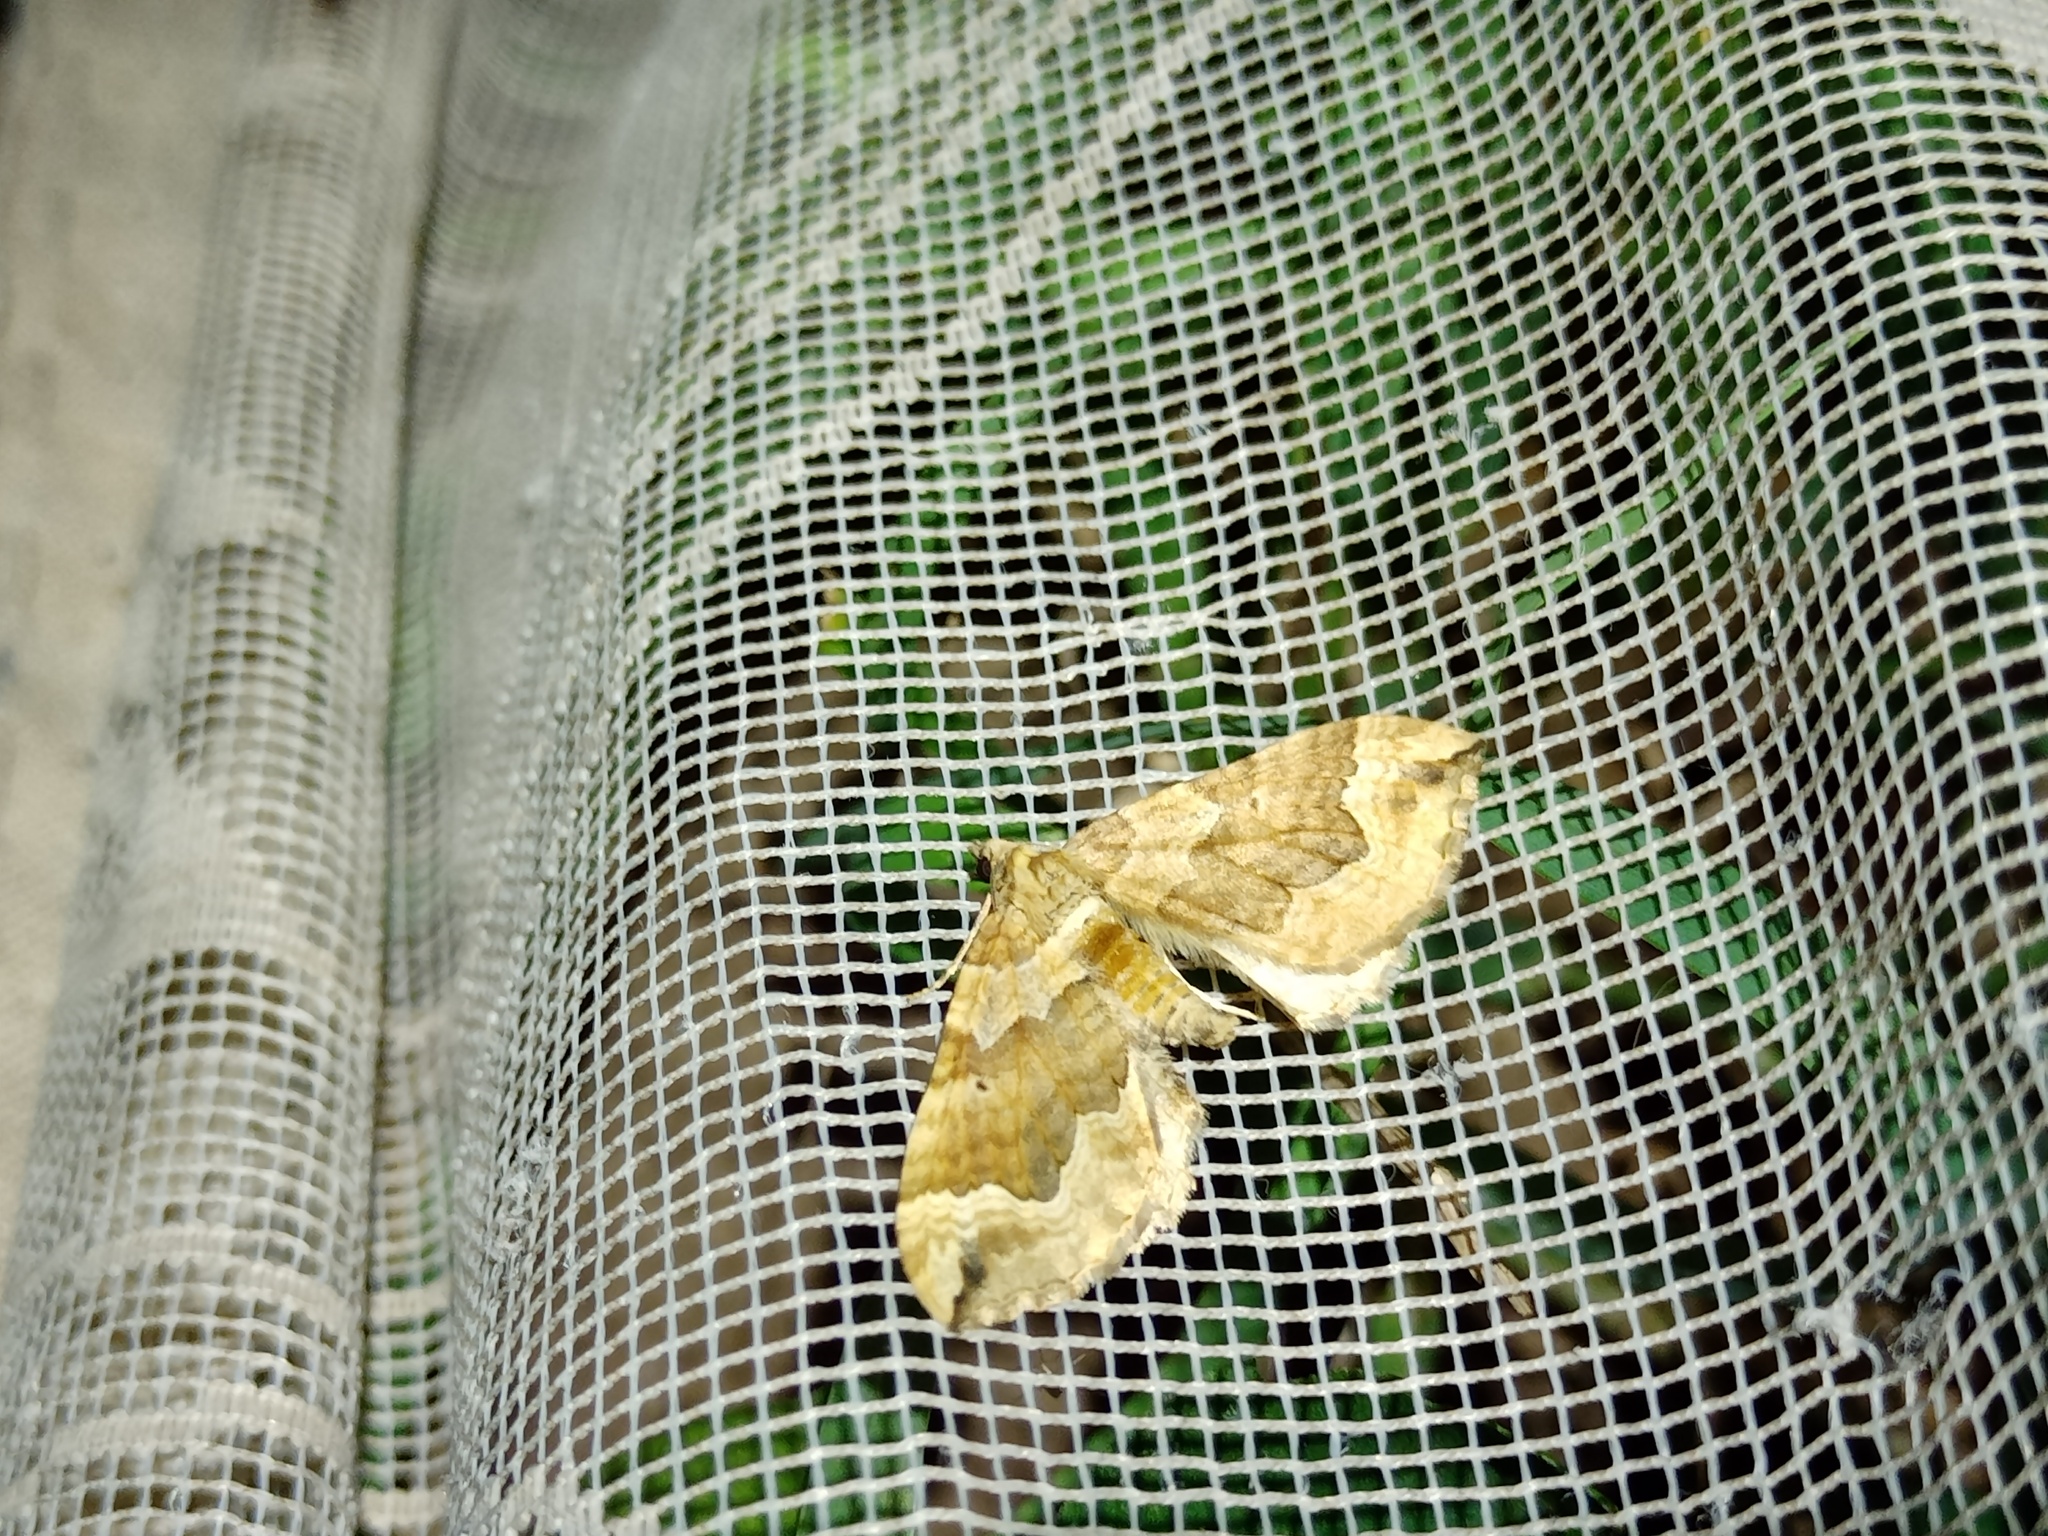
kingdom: Animalia
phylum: Arthropoda
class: Insecta
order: Lepidoptera
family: Geometridae
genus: Pelurga
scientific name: Pelurga comitata
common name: Dark spinach
